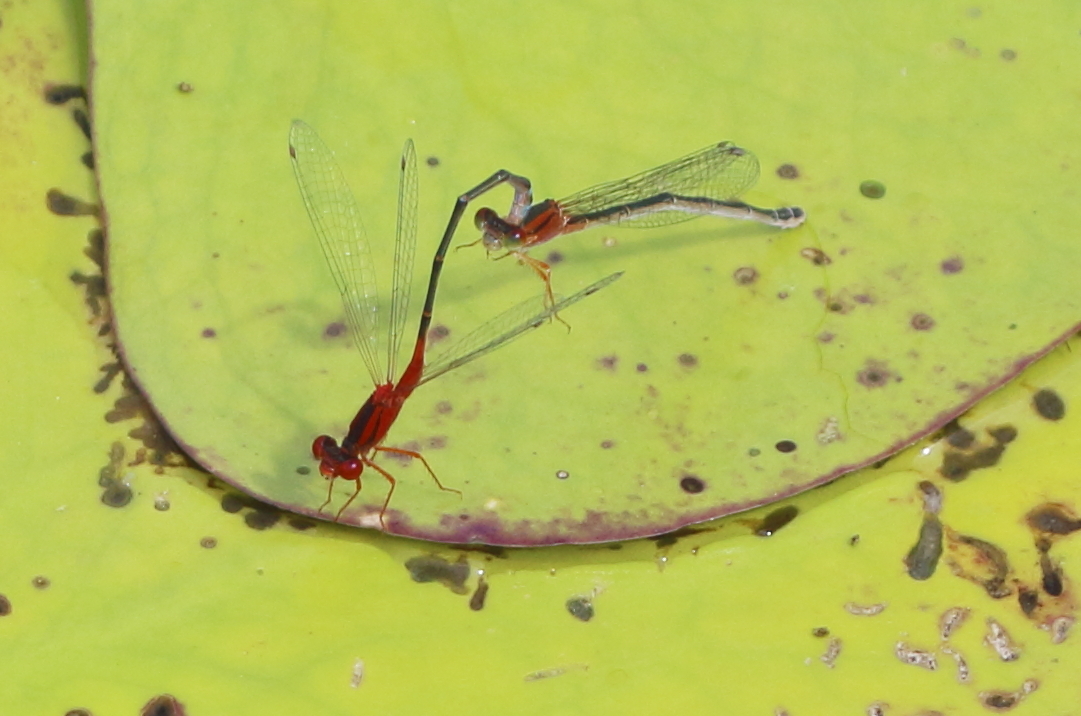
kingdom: Animalia
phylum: Arthropoda
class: Insecta
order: Odonata
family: Coenagrionidae
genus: Xanthagrion
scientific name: Xanthagrion erythroneurum
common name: Red and blue damsel
